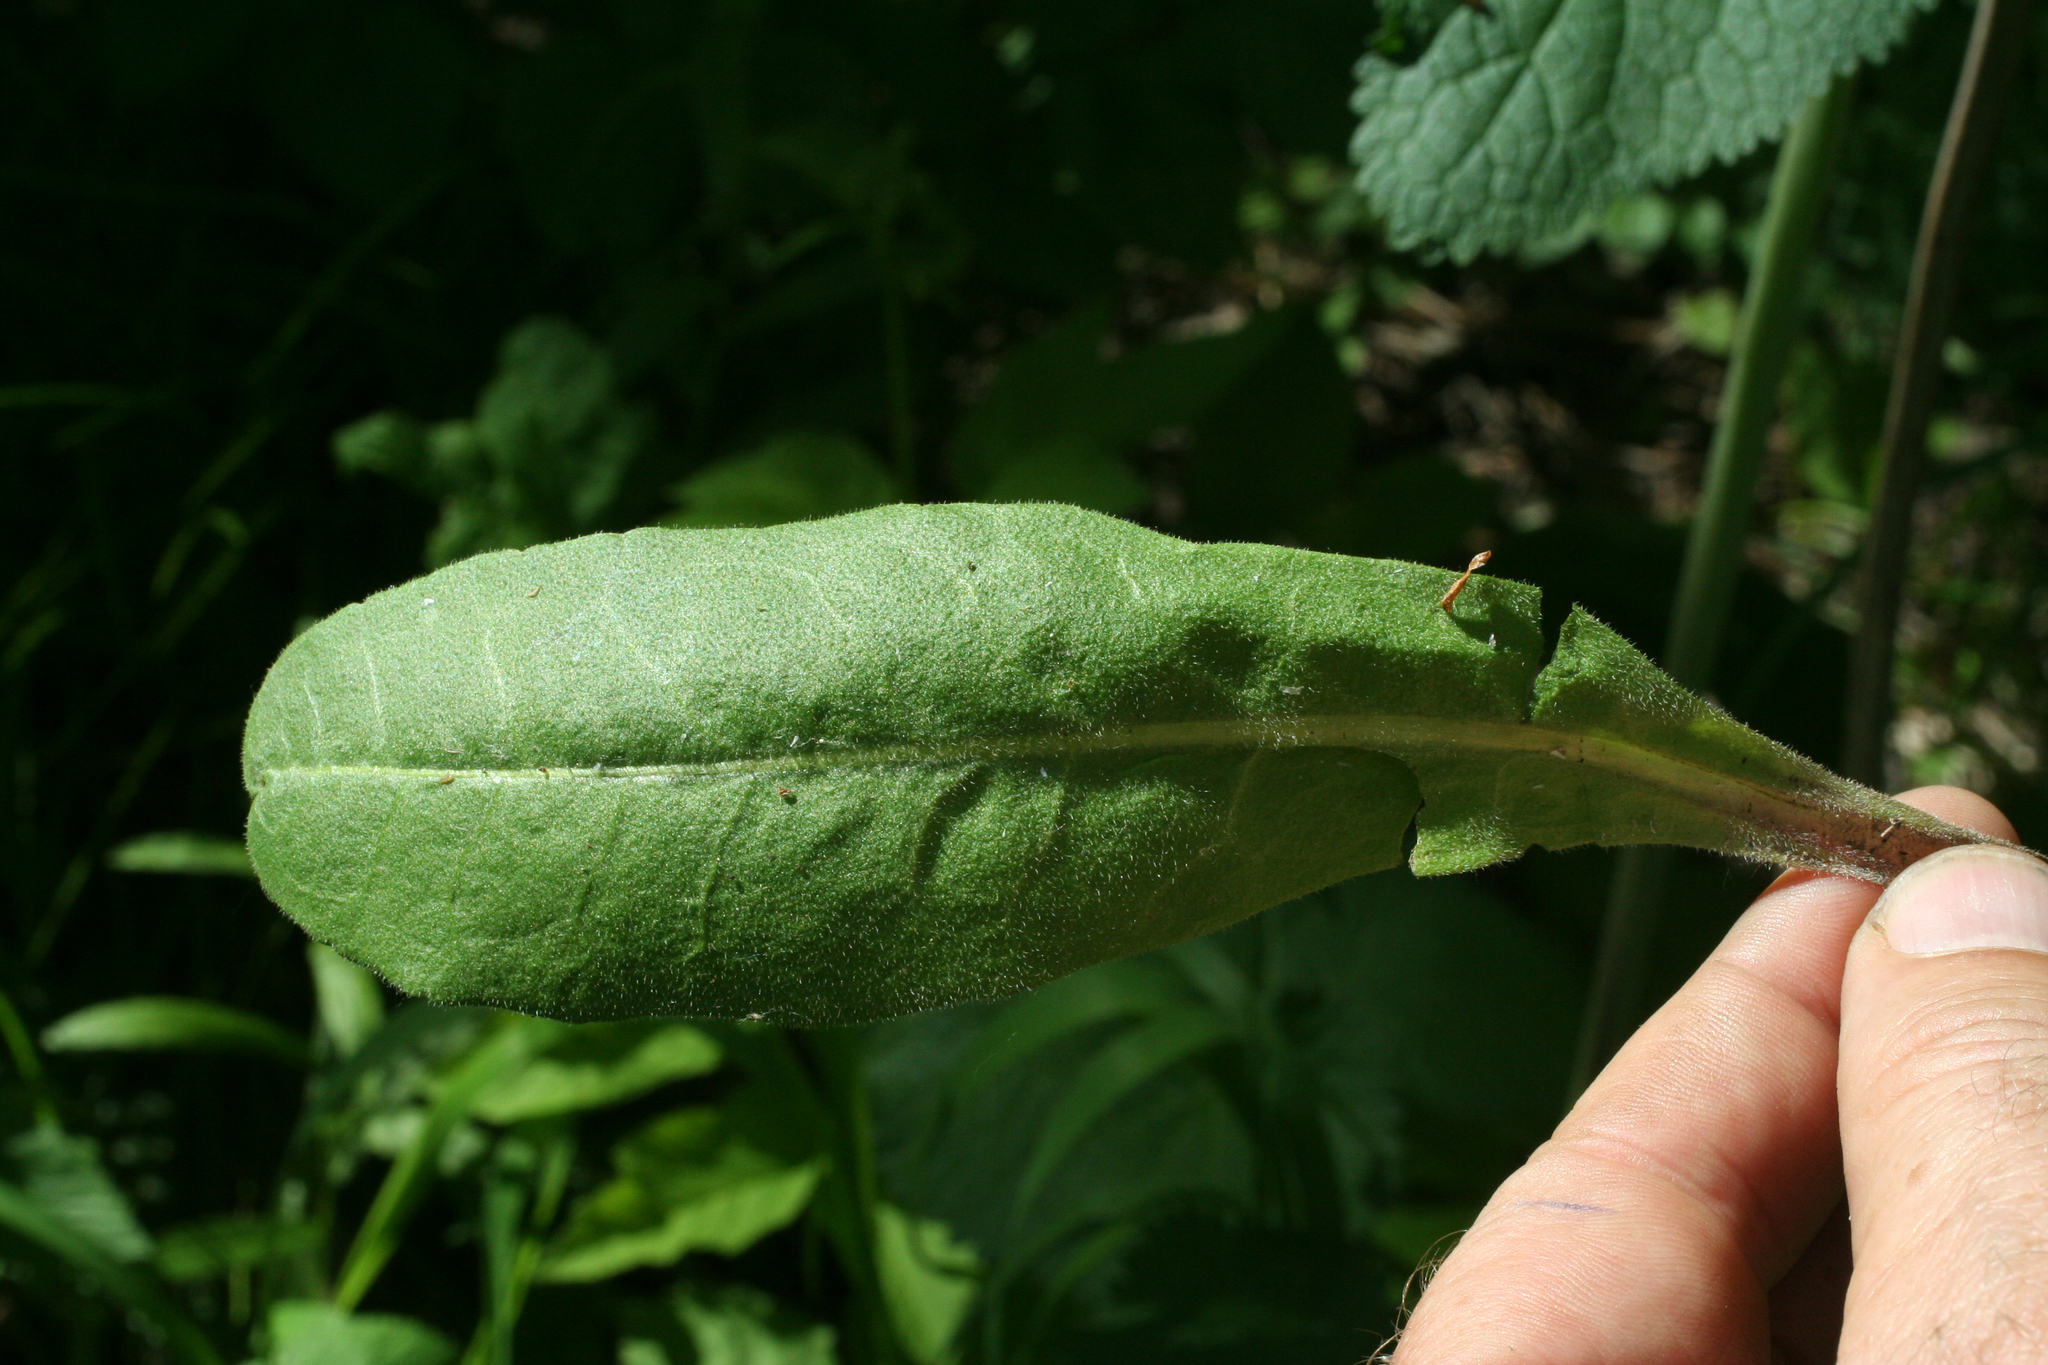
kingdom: Plantae
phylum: Tracheophyta
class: Magnoliopsida
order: Asterales
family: Asteraceae
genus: Crepis
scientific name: Crepis praemorsa
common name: Leafless hawk's-beard
